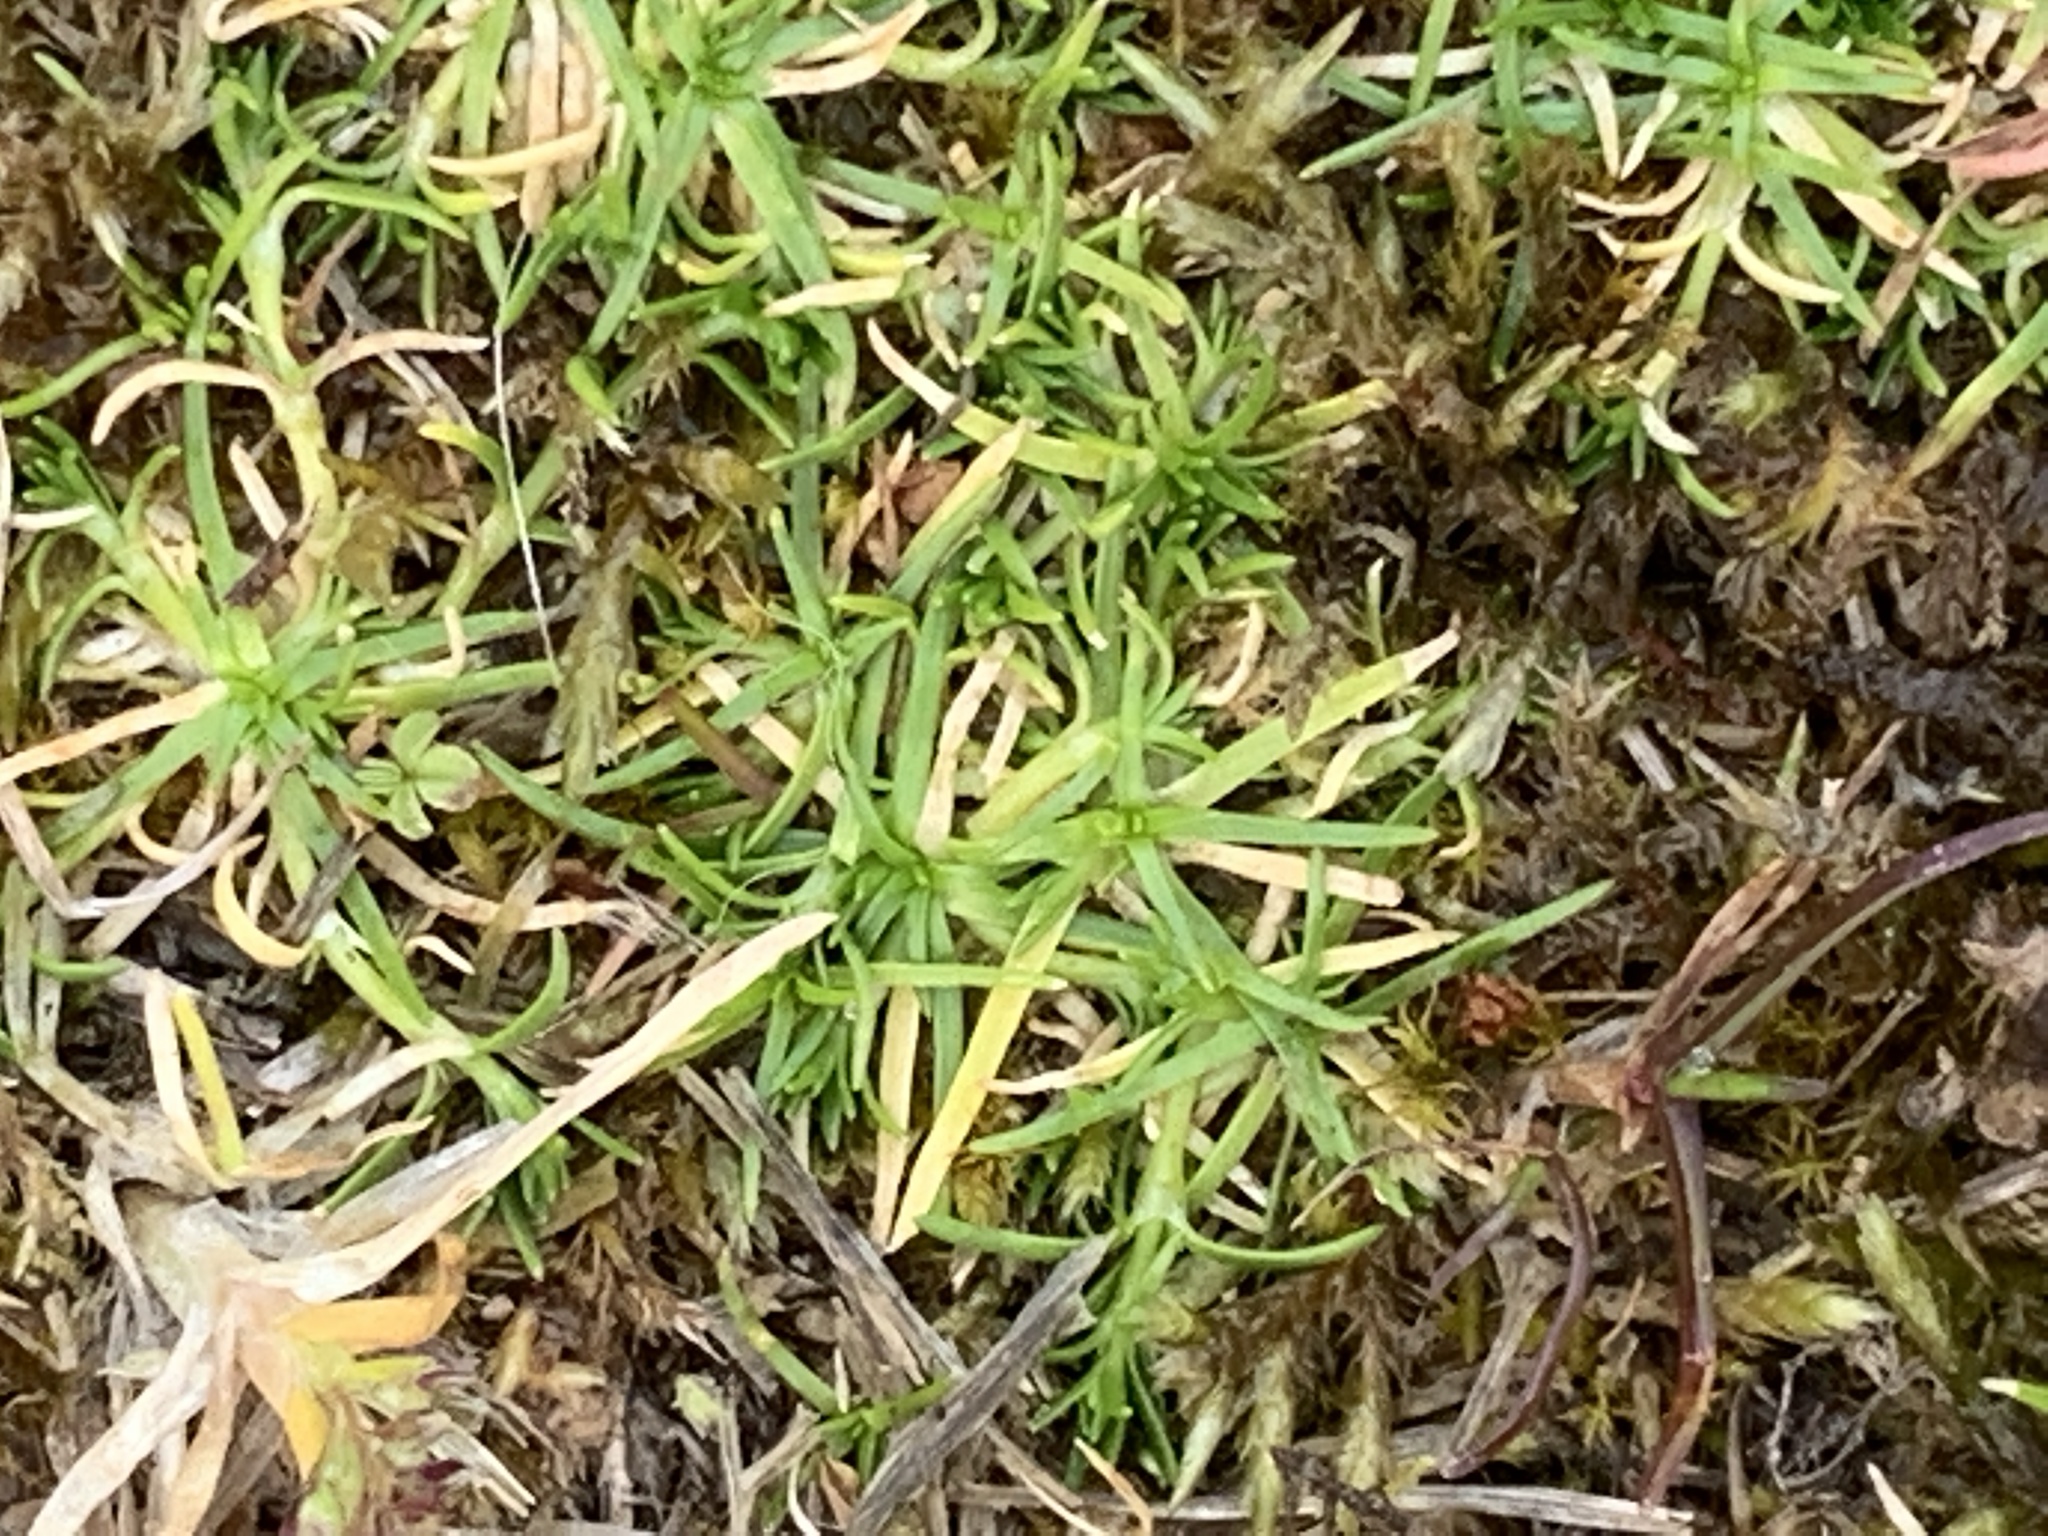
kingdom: Plantae
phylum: Tracheophyta
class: Magnoliopsida
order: Caryophyllales
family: Caryophyllaceae
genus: Sagina
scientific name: Sagina procumbens
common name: Procumbent pearlwort
